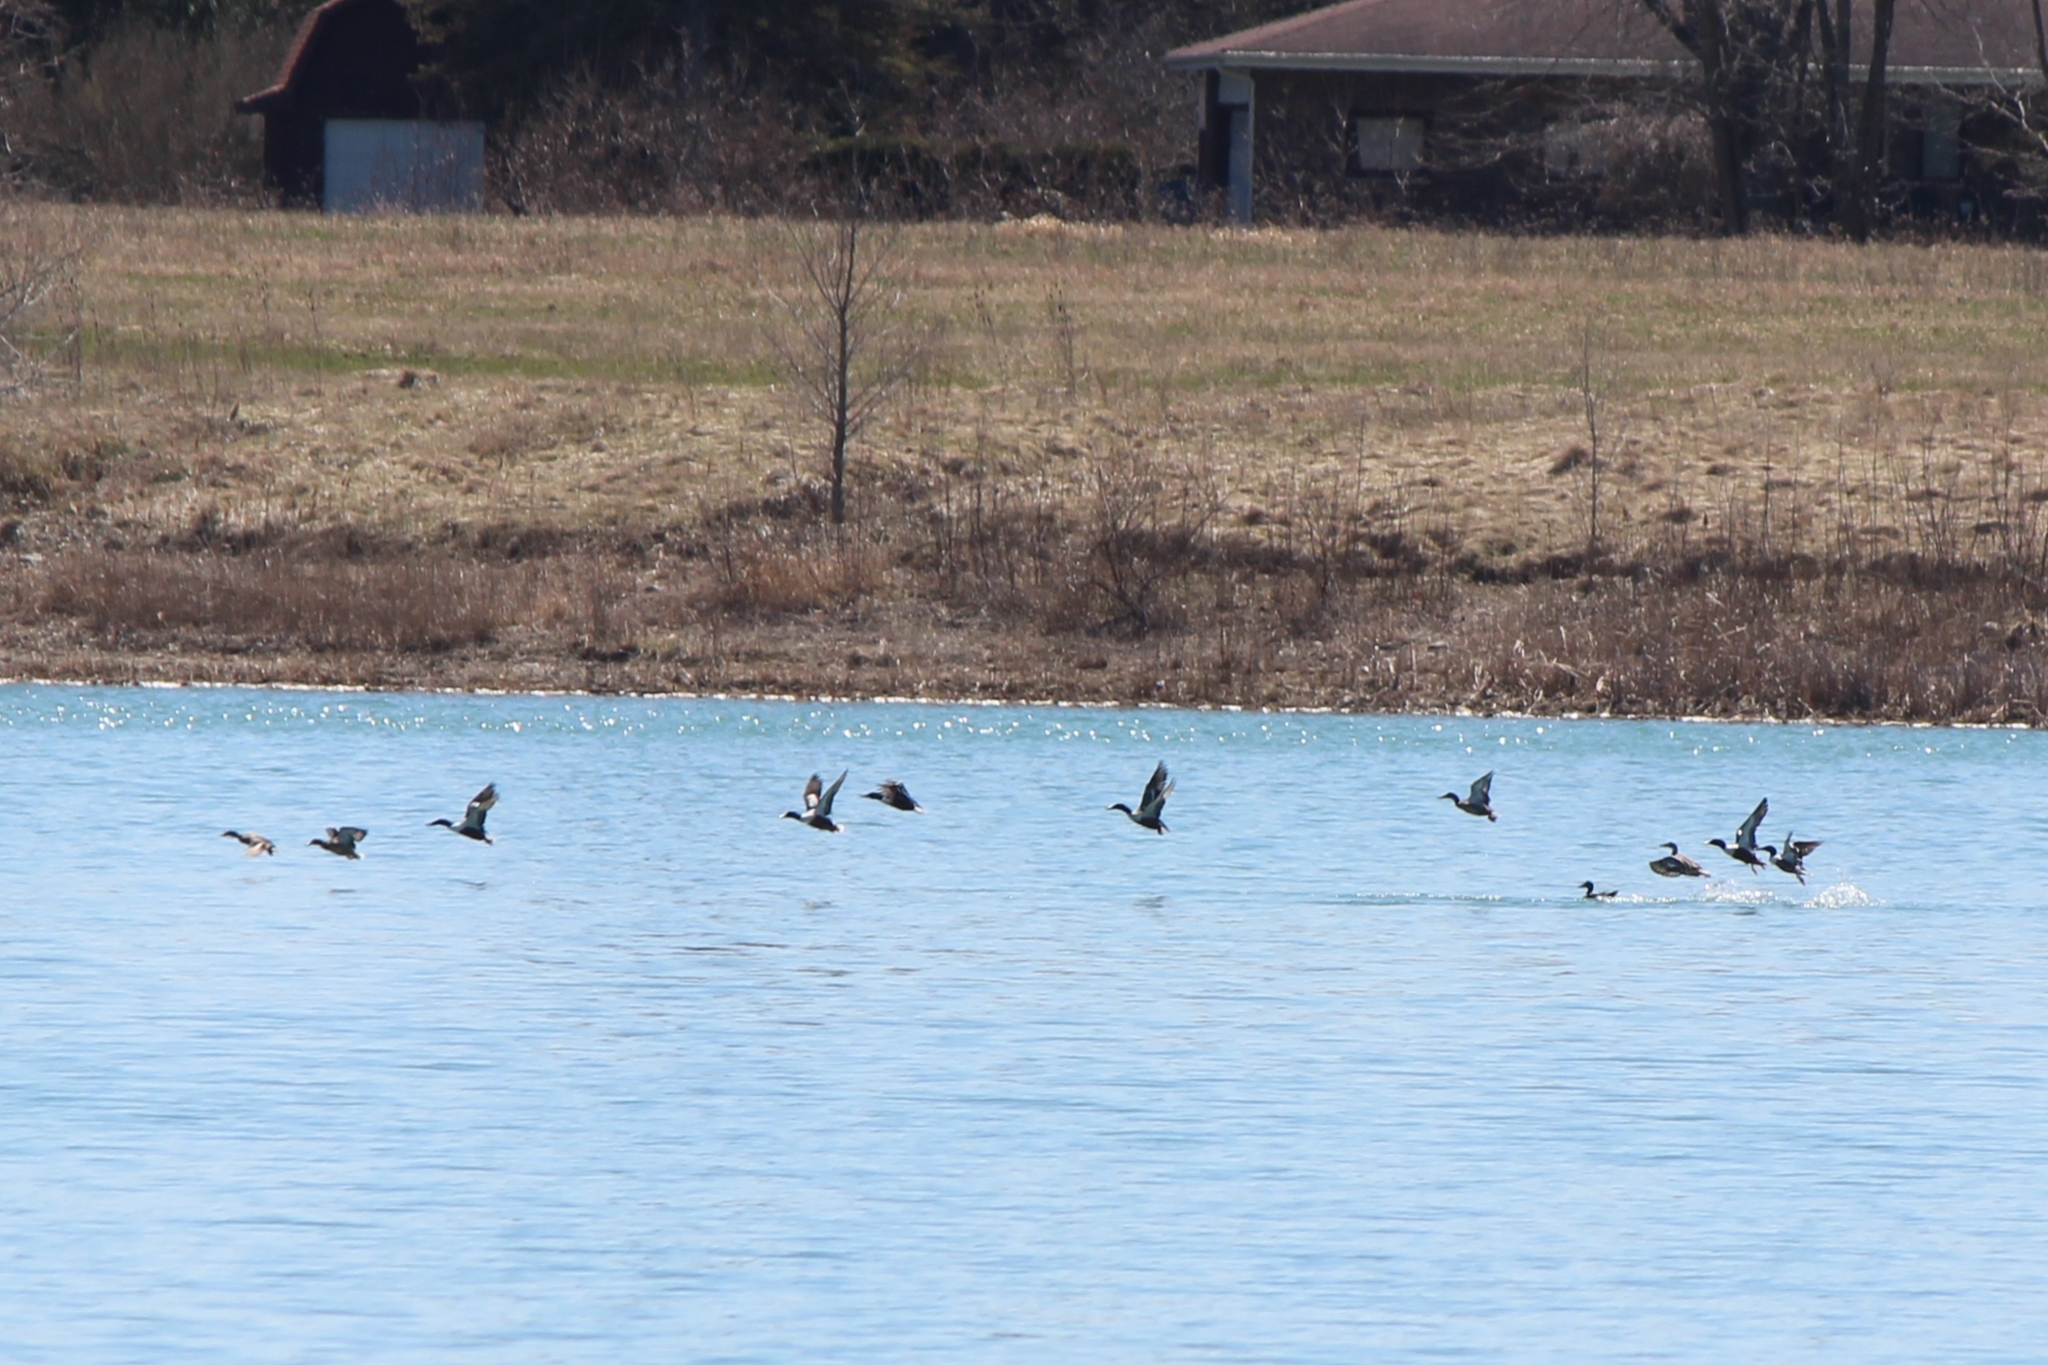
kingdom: Animalia
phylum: Chordata
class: Aves
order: Anseriformes
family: Anatidae
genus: Spatula
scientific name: Spatula clypeata
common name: Northern shoveler
